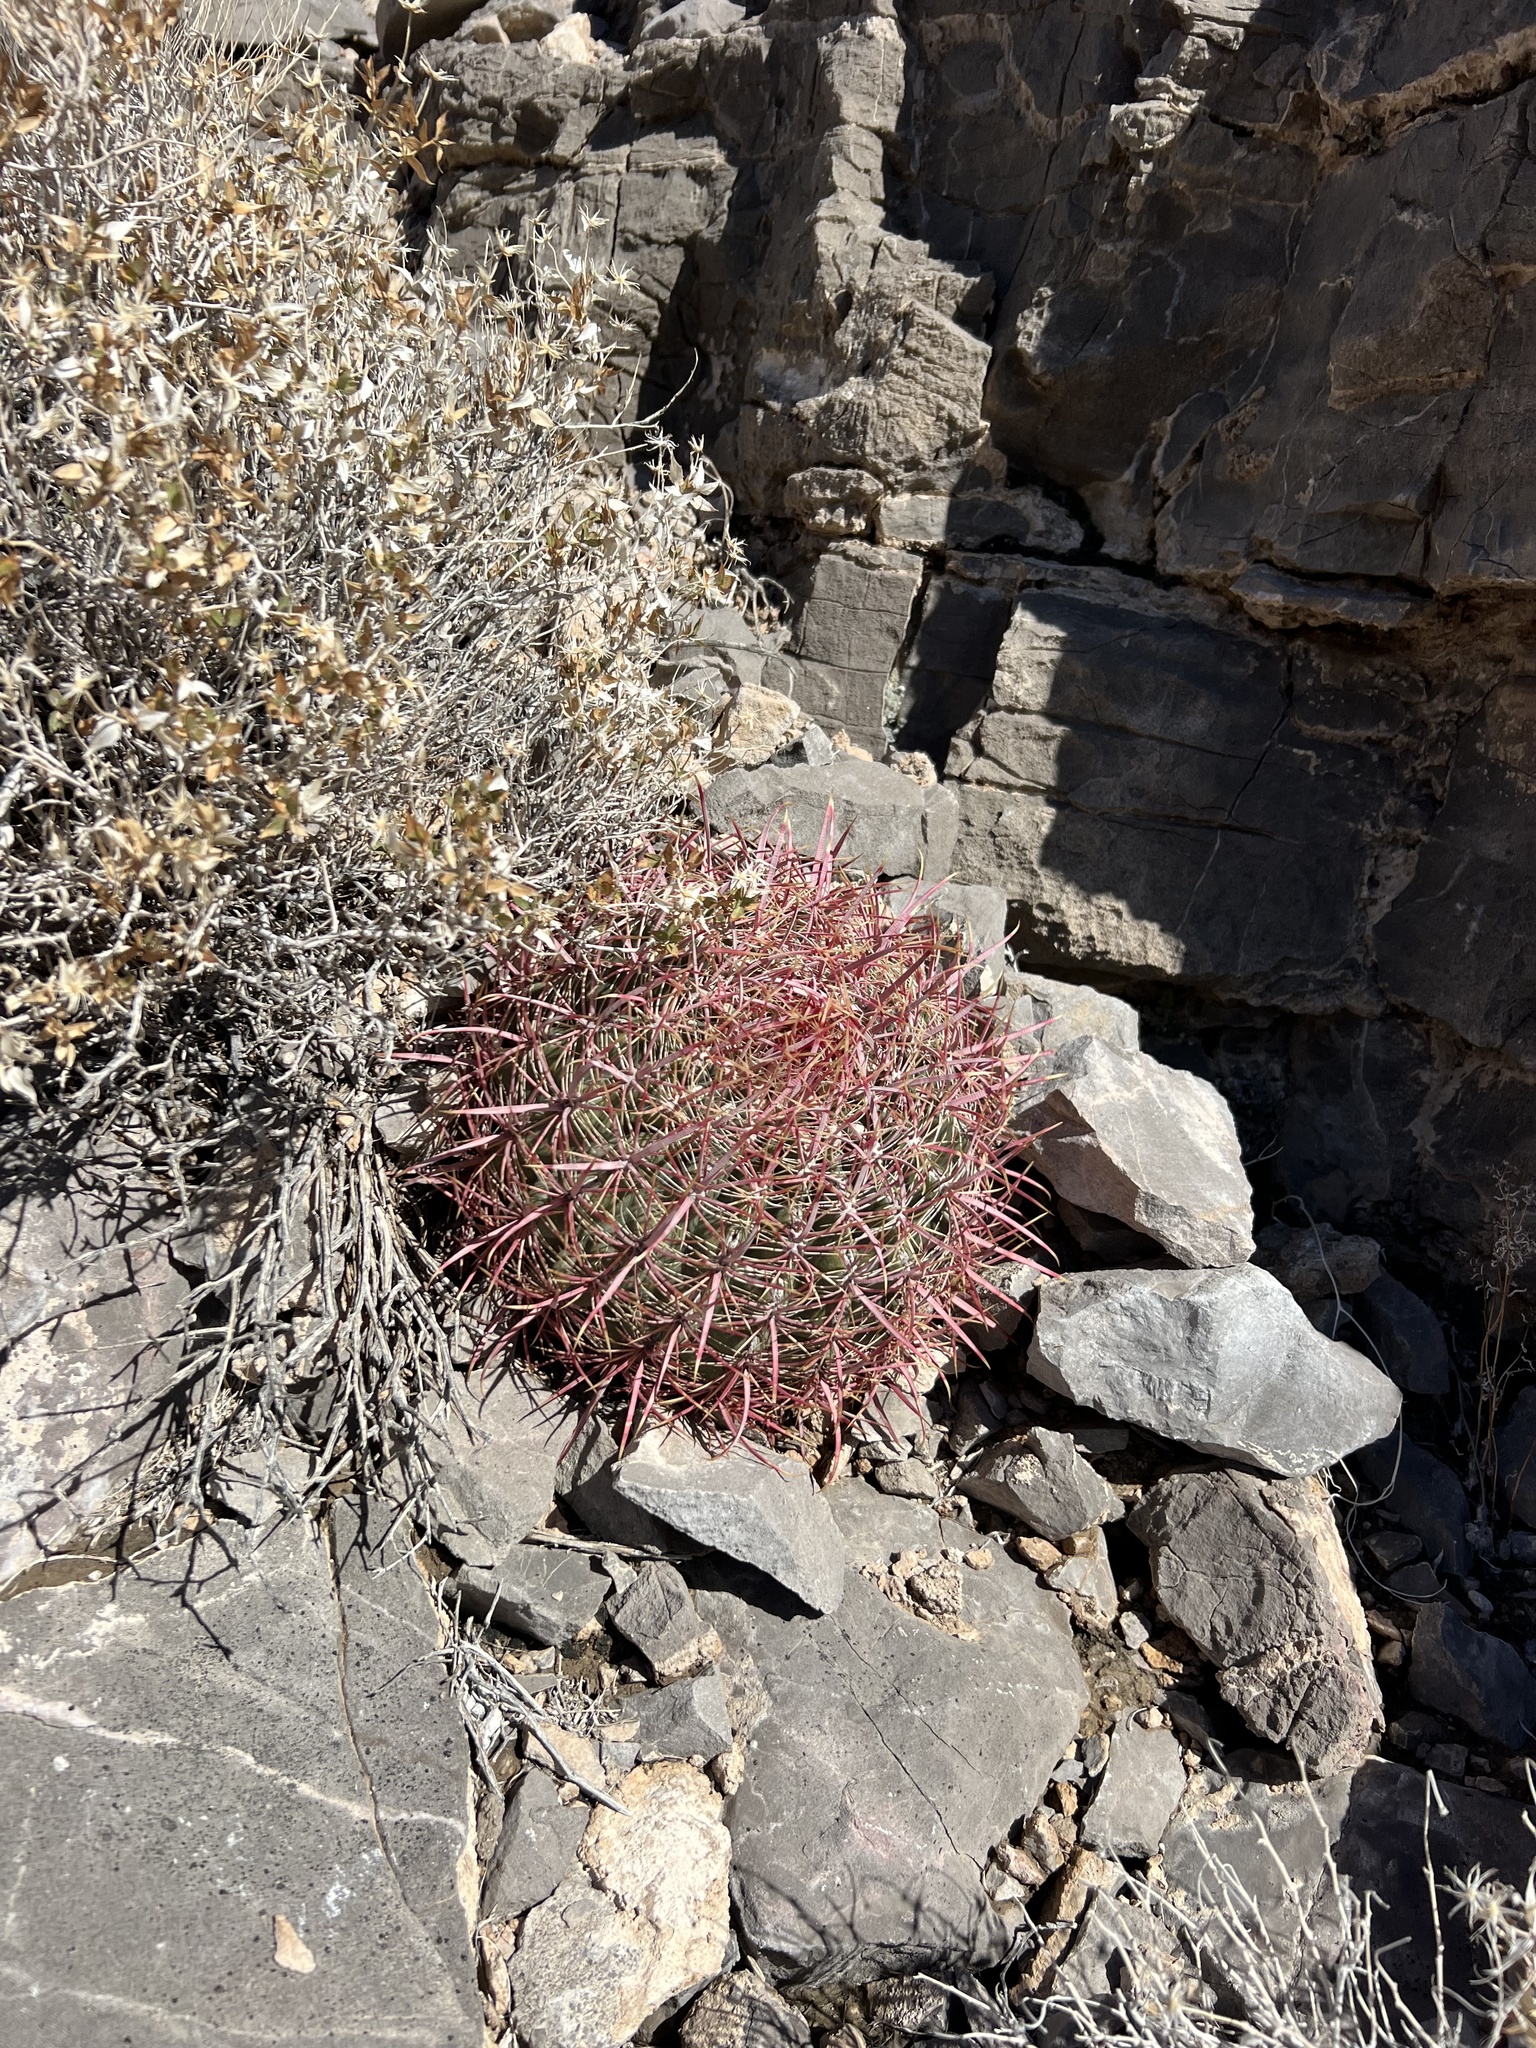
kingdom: Plantae
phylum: Tracheophyta
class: Magnoliopsida
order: Caryophyllales
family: Cactaceae
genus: Ferocactus
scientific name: Ferocactus cylindraceus
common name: California barrel cactus
